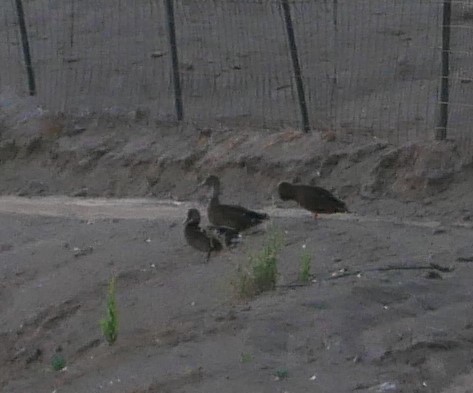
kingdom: Animalia
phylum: Chordata
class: Aves
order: Anseriformes
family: Anatidae
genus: Anas
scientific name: Anas
